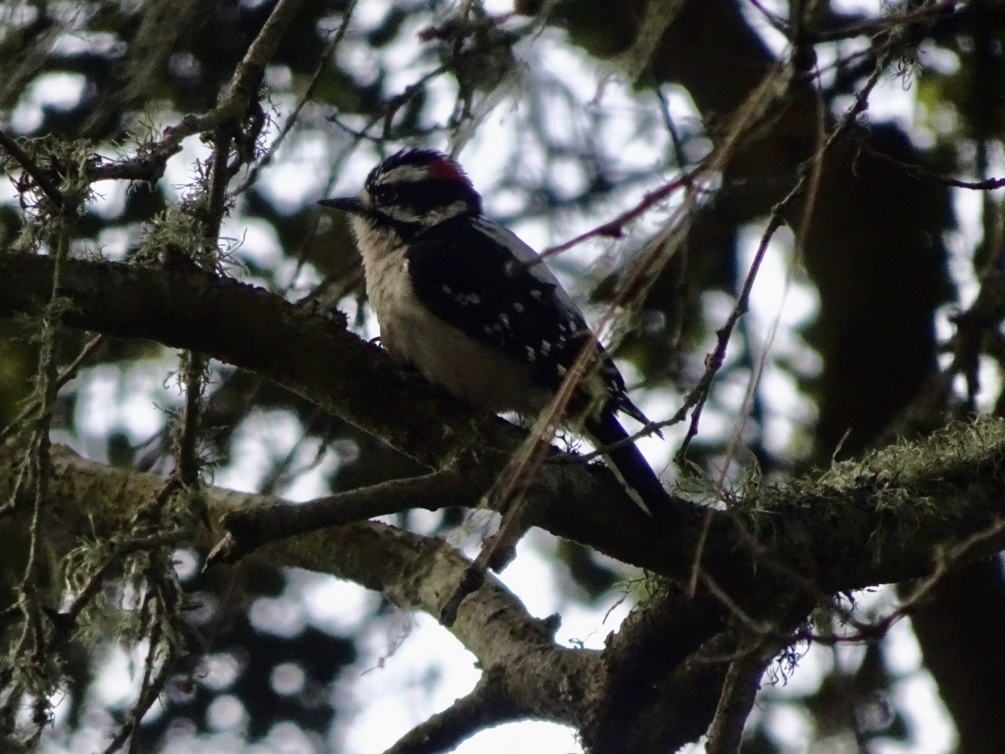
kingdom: Animalia
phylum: Chordata
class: Aves
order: Piciformes
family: Picidae
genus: Dryobates
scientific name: Dryobates pubescens
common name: Downy woodpecker
